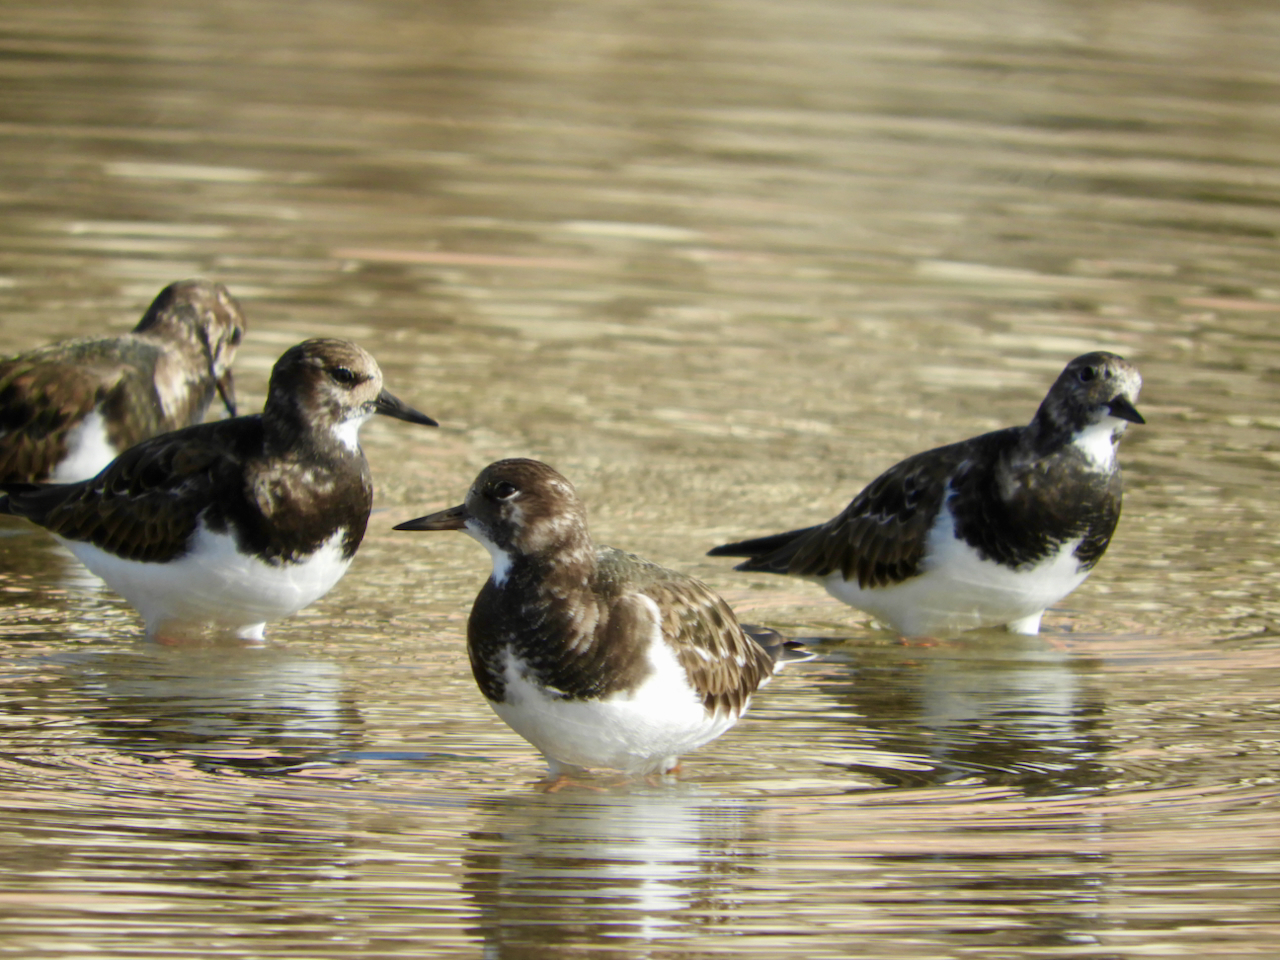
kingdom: Animalia
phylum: Chordata
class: Aves
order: Charadriiformes
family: Scolopacidae
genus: Arenaria
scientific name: Arenaria interpres
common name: Ruddy turnstone
